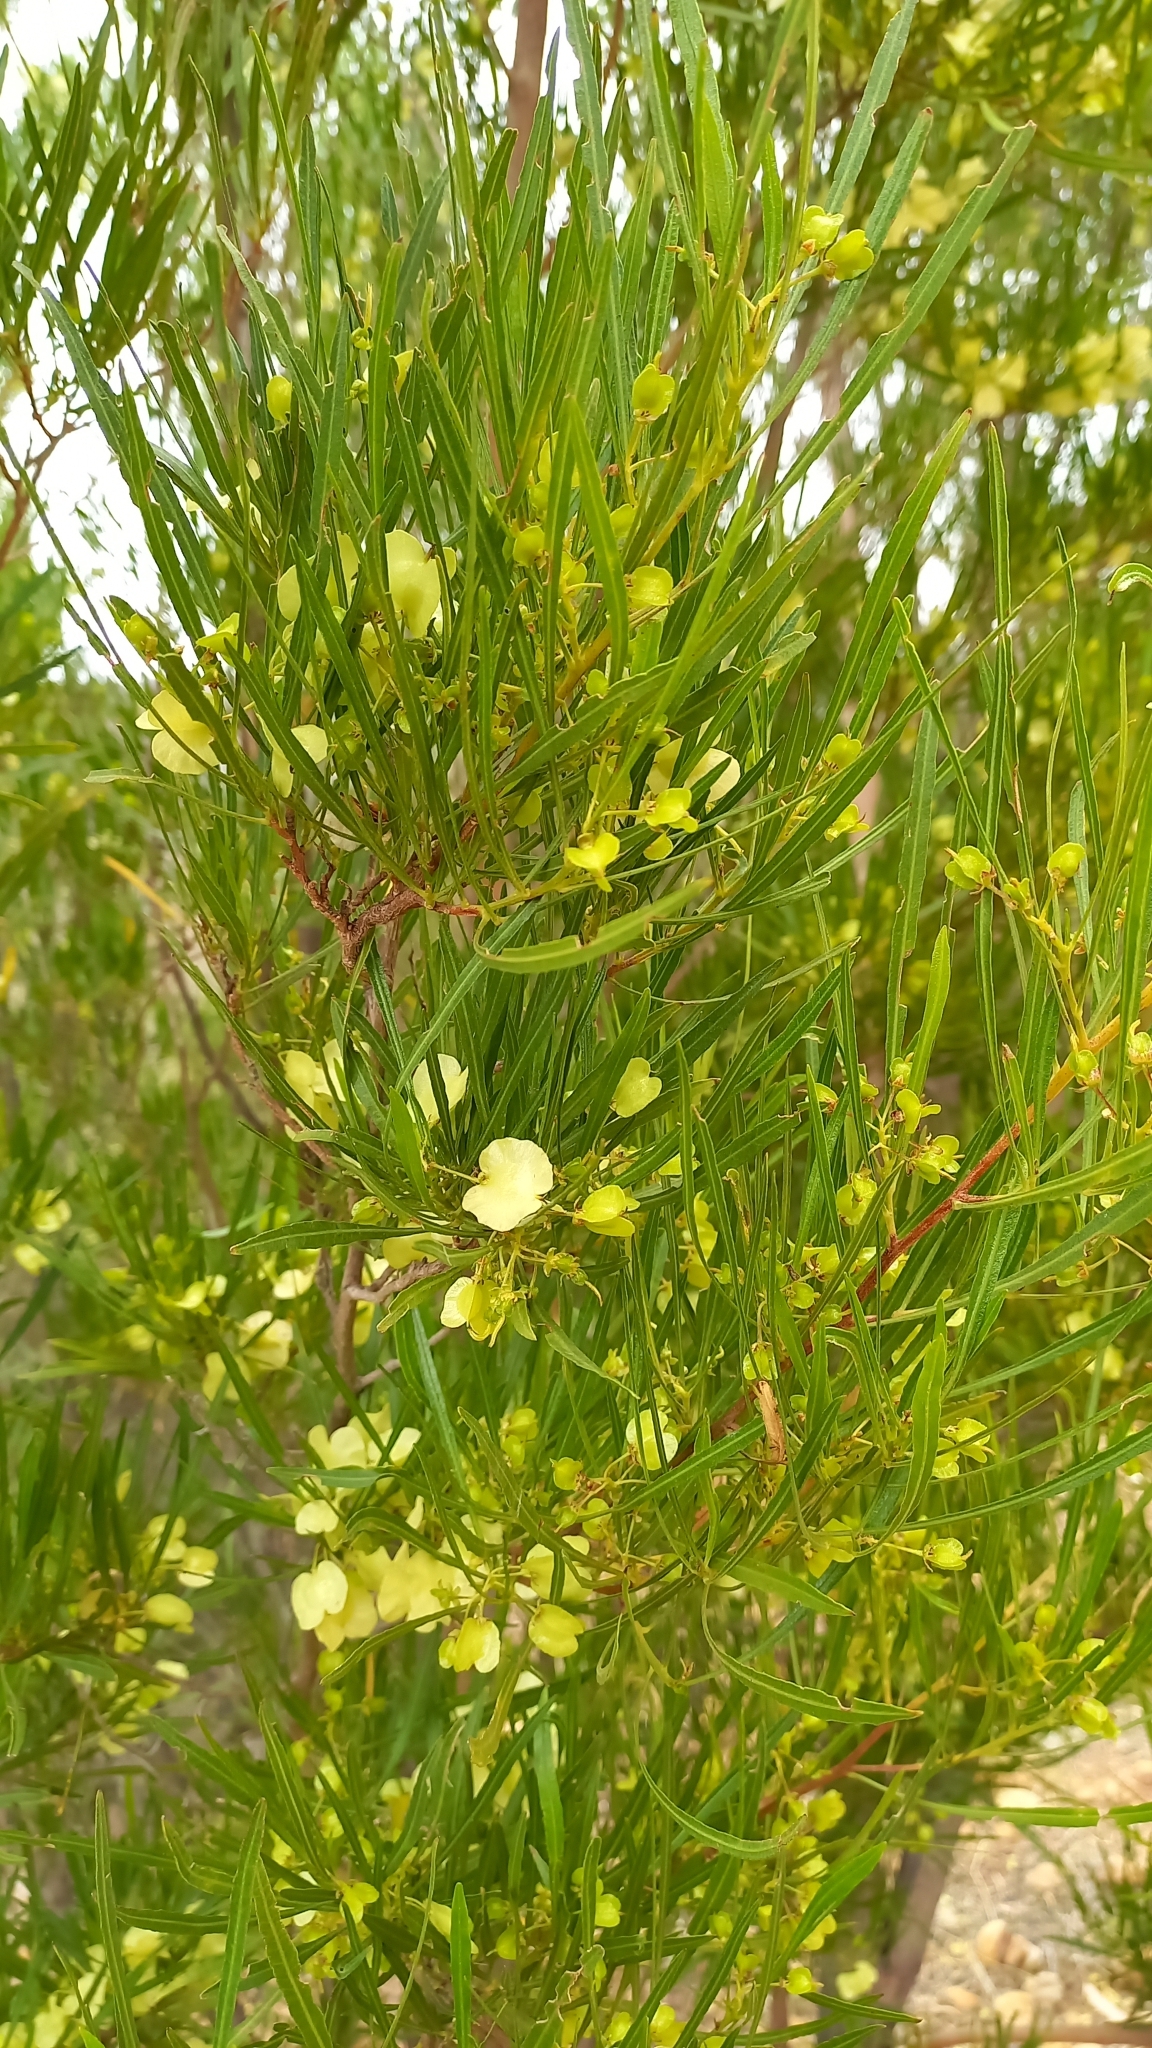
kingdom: Plantae
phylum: Tracheophyta
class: Magnoliopsida
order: Sapindales
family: Sapindaceae
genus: Dodonaea
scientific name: Dodonaea viscosa
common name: Hopbush
